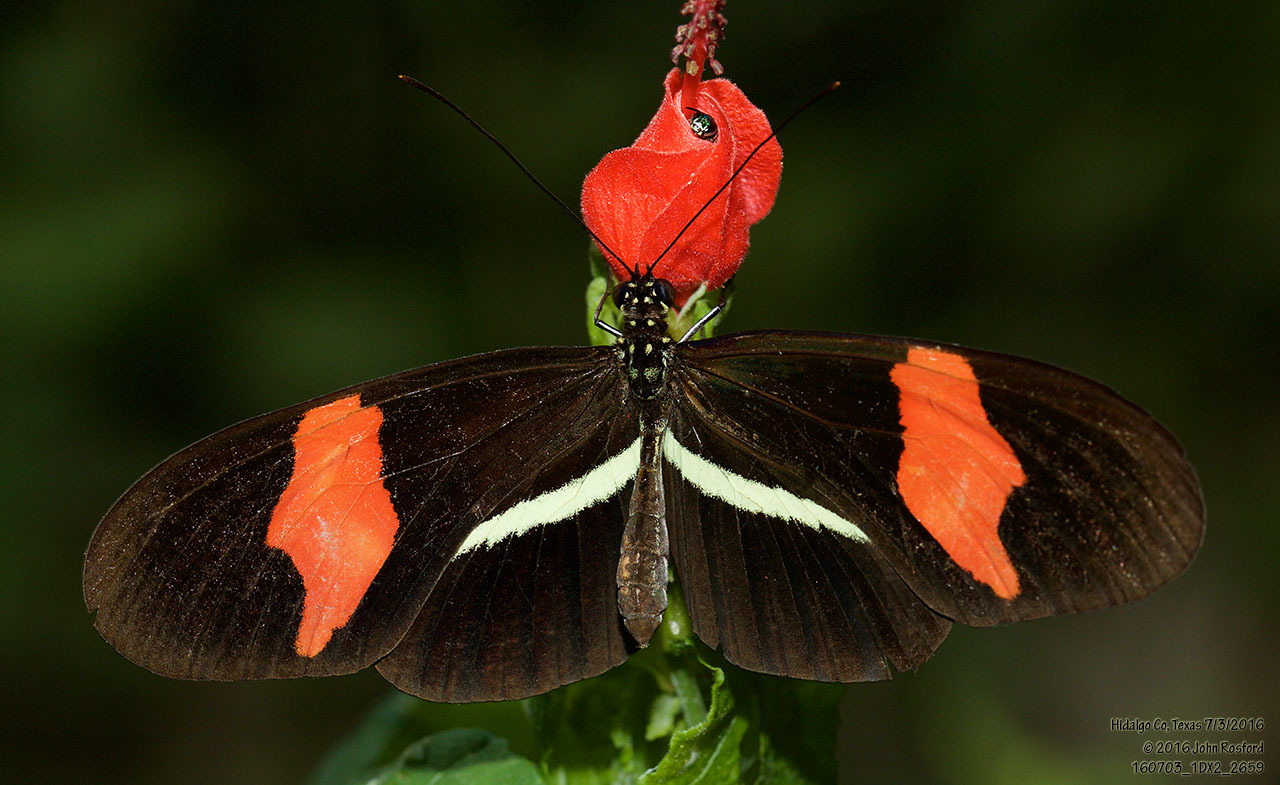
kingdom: Animalia
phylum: Arthropoda
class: Insecta
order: Lepidoptera
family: Nymphalidae
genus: Tirumala
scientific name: Tirumala petiverana
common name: Blue monarch
